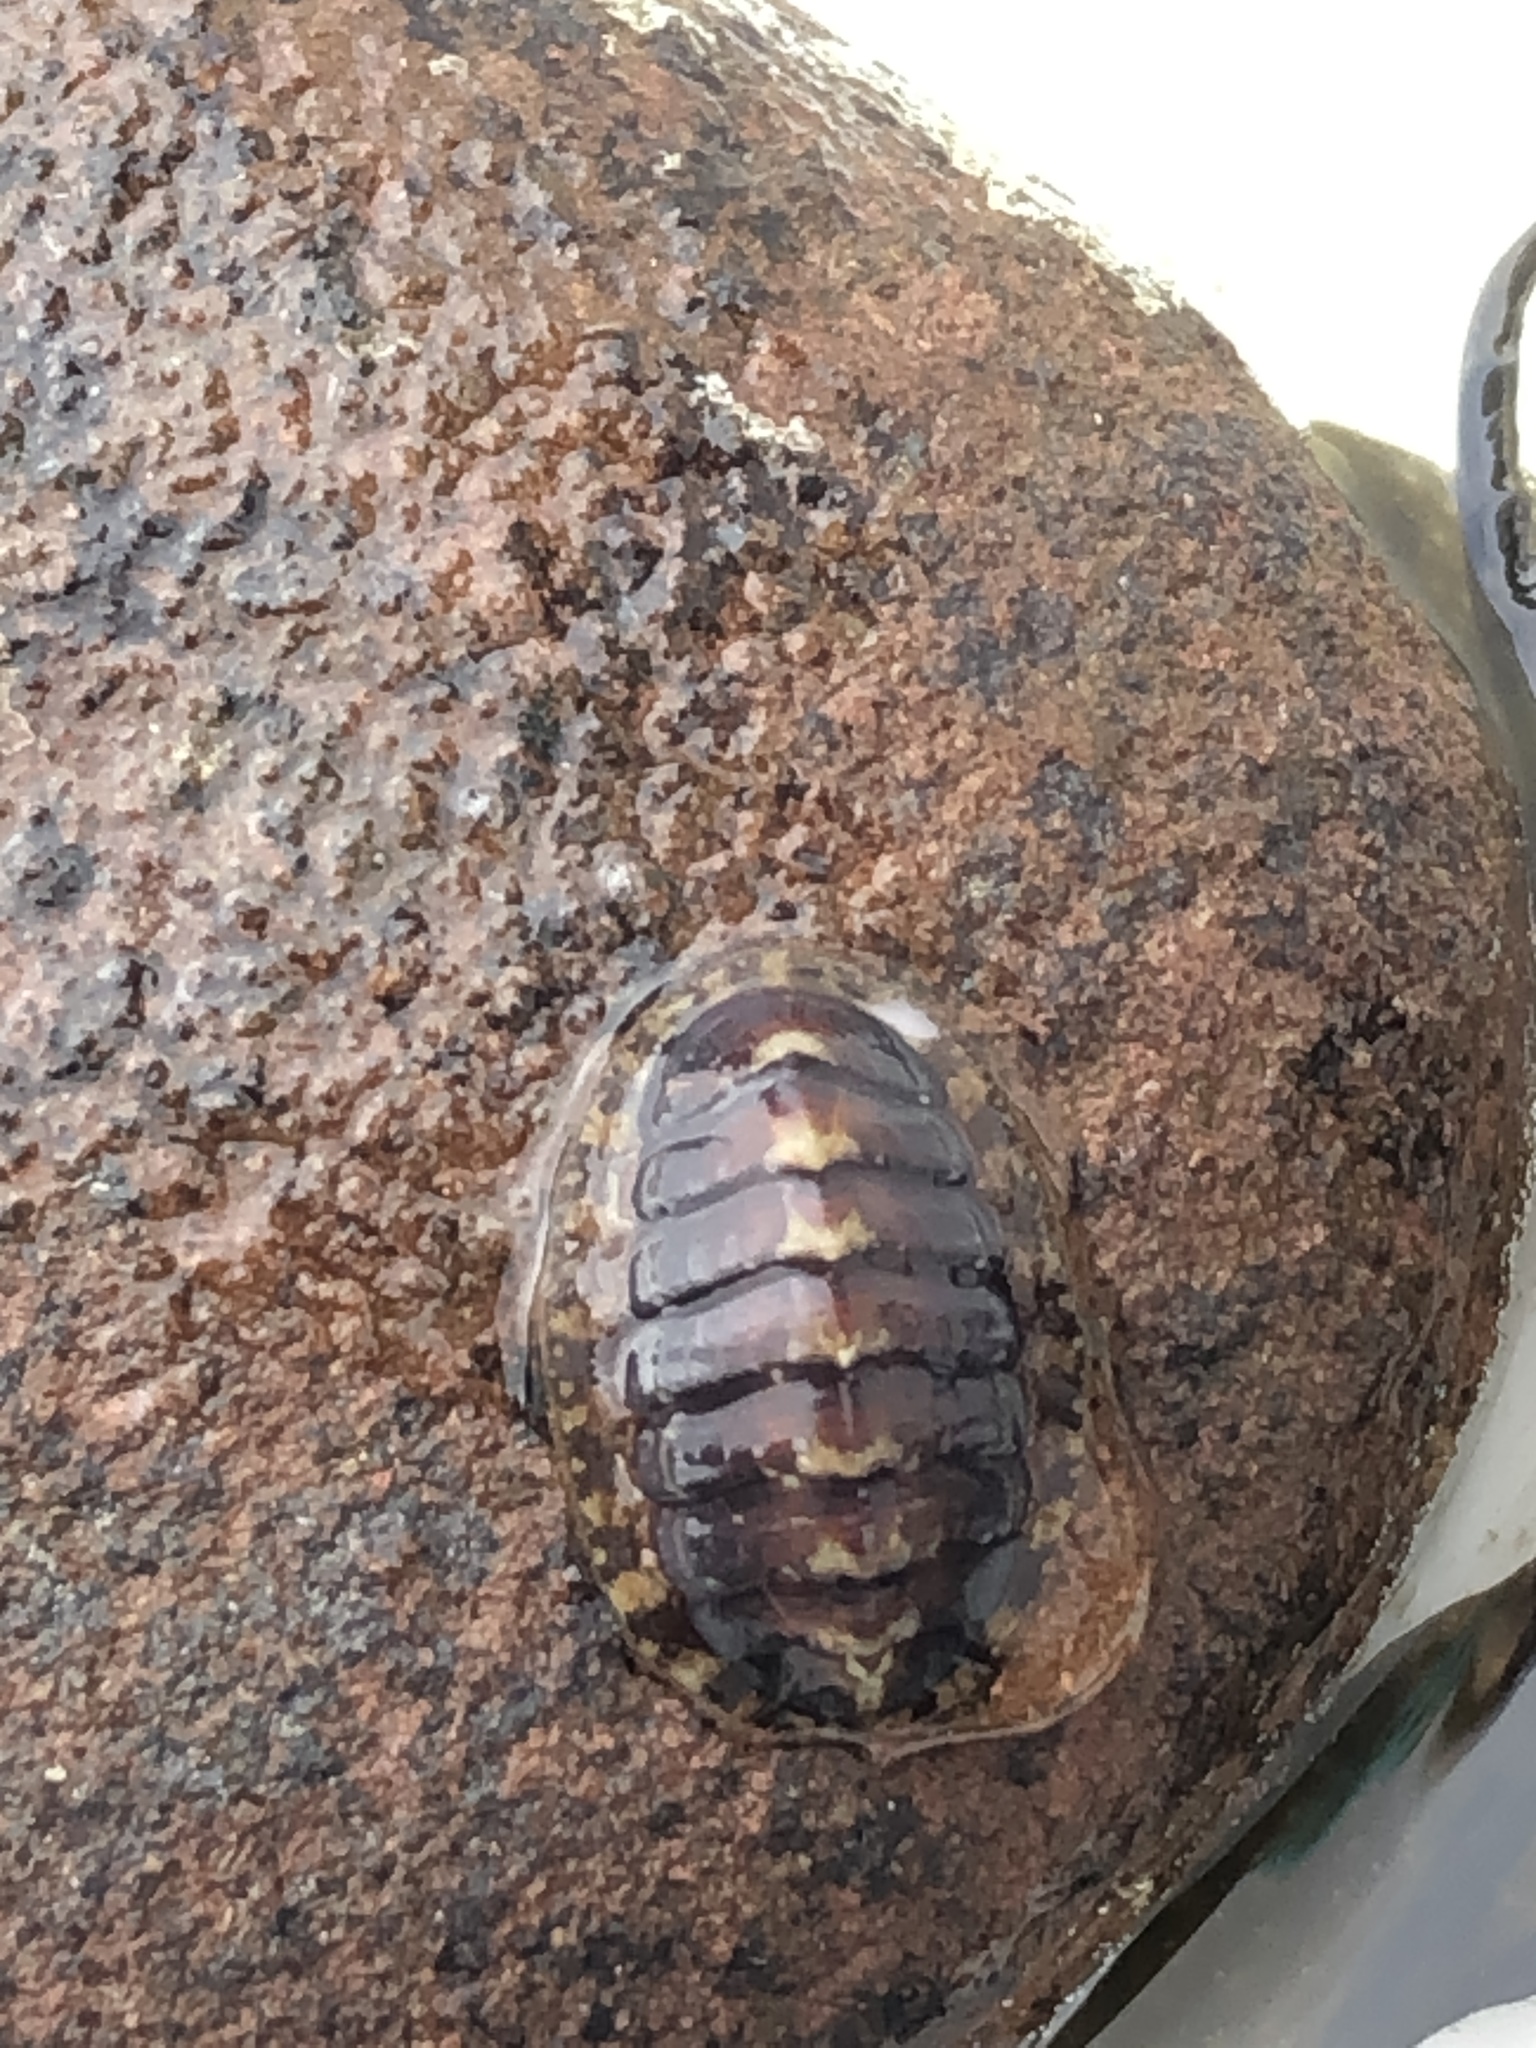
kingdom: Animalia
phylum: Mollusca
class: Polyplacophora
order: Chitonida
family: Tonicellidae
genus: Lepidochitona
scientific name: Lepidochitona cinerea
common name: Cinereous chiton
